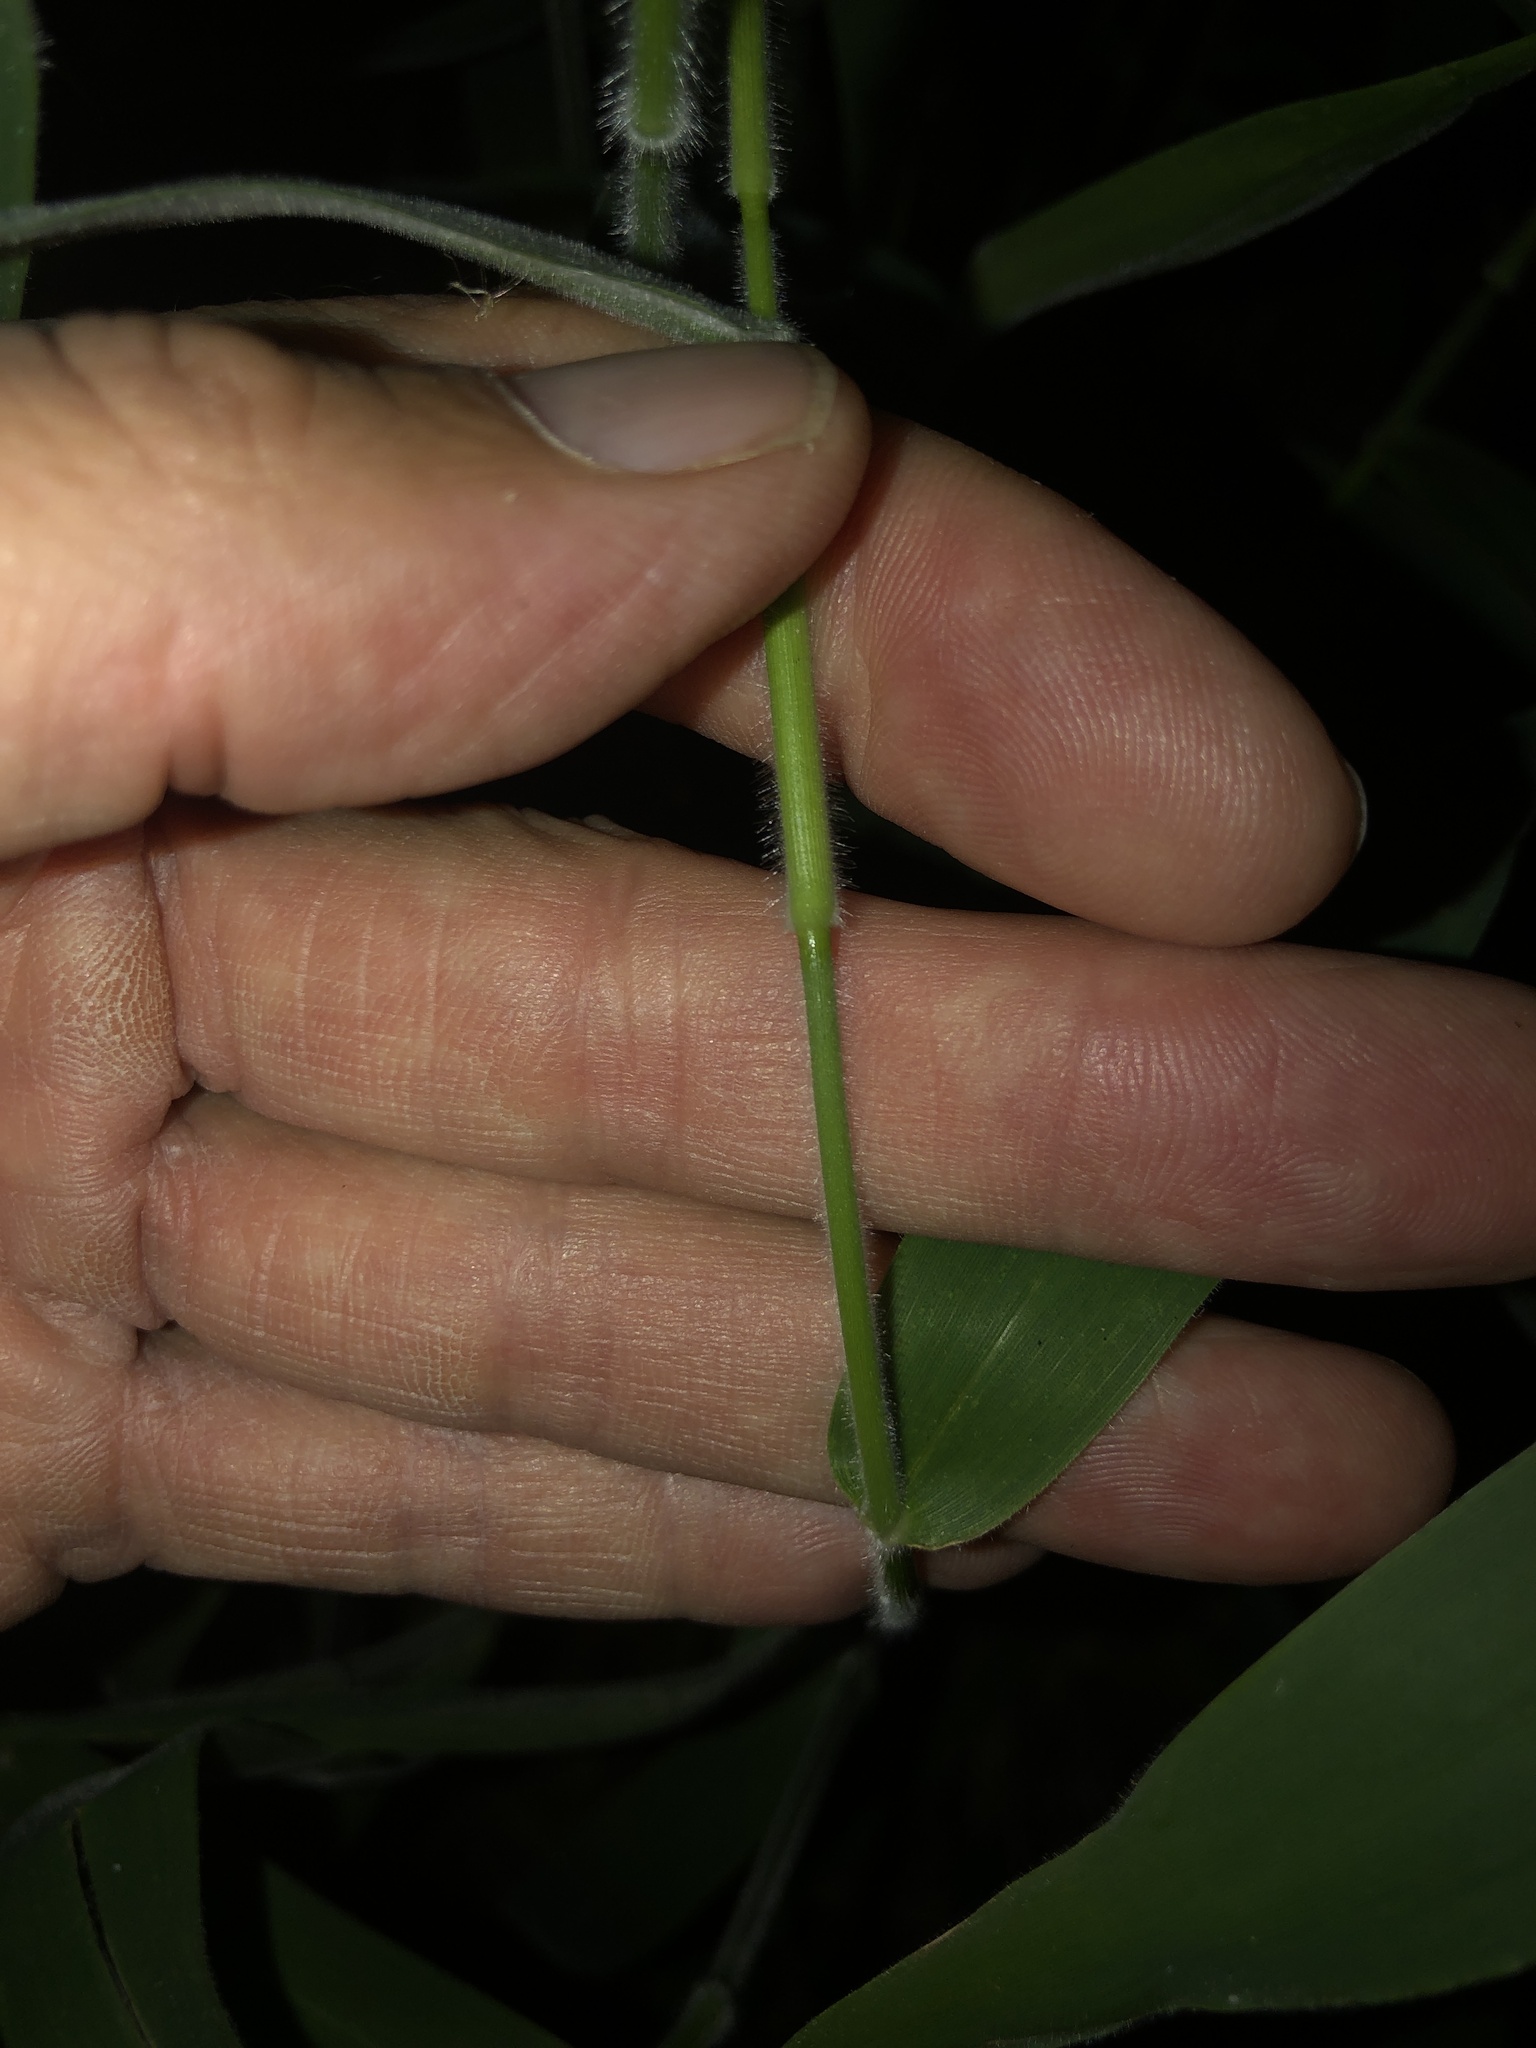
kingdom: Plantae
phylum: Tracheophyta
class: Liliopsida
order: Poales
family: Poaceae
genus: Dichanthelium
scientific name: Dichanthelium scoparium
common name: Velvety panic grass
